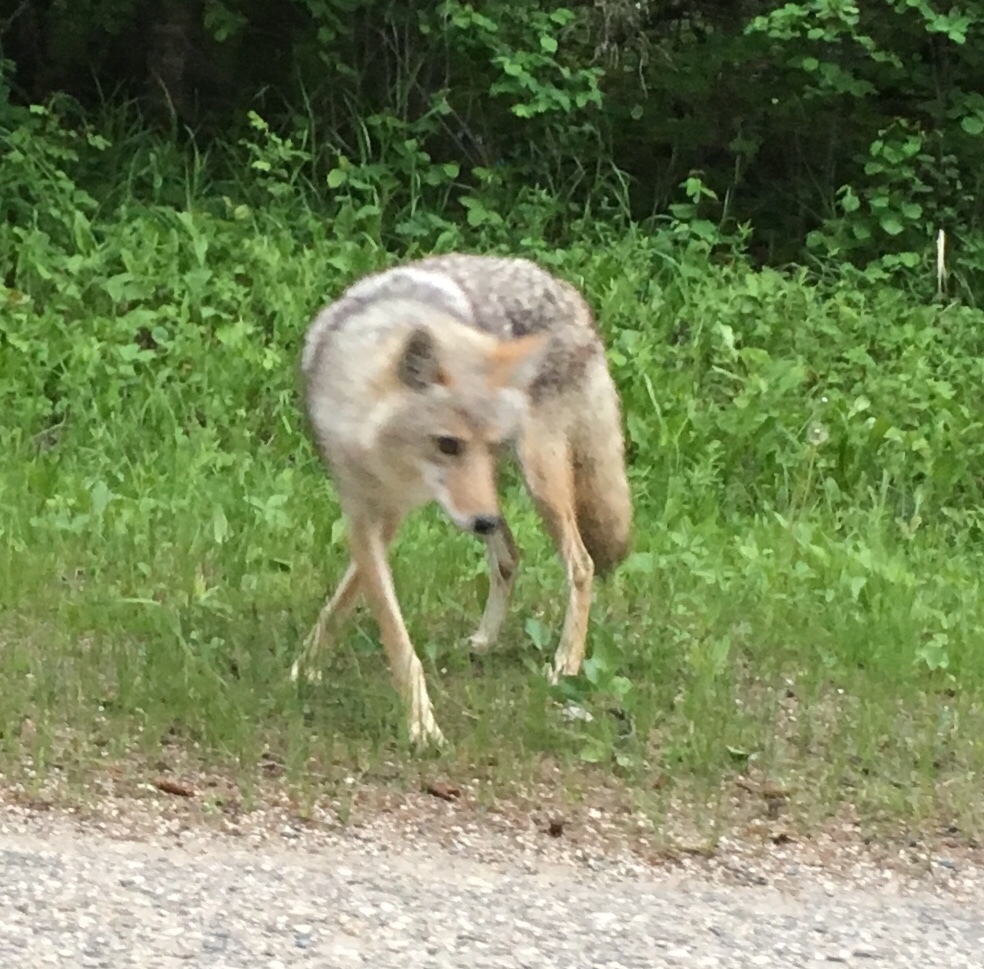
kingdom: Animalia
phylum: Chordata
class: Mammalia
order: Carnivora
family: Canidae
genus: Canis
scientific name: Canis latrans
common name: Coyote
